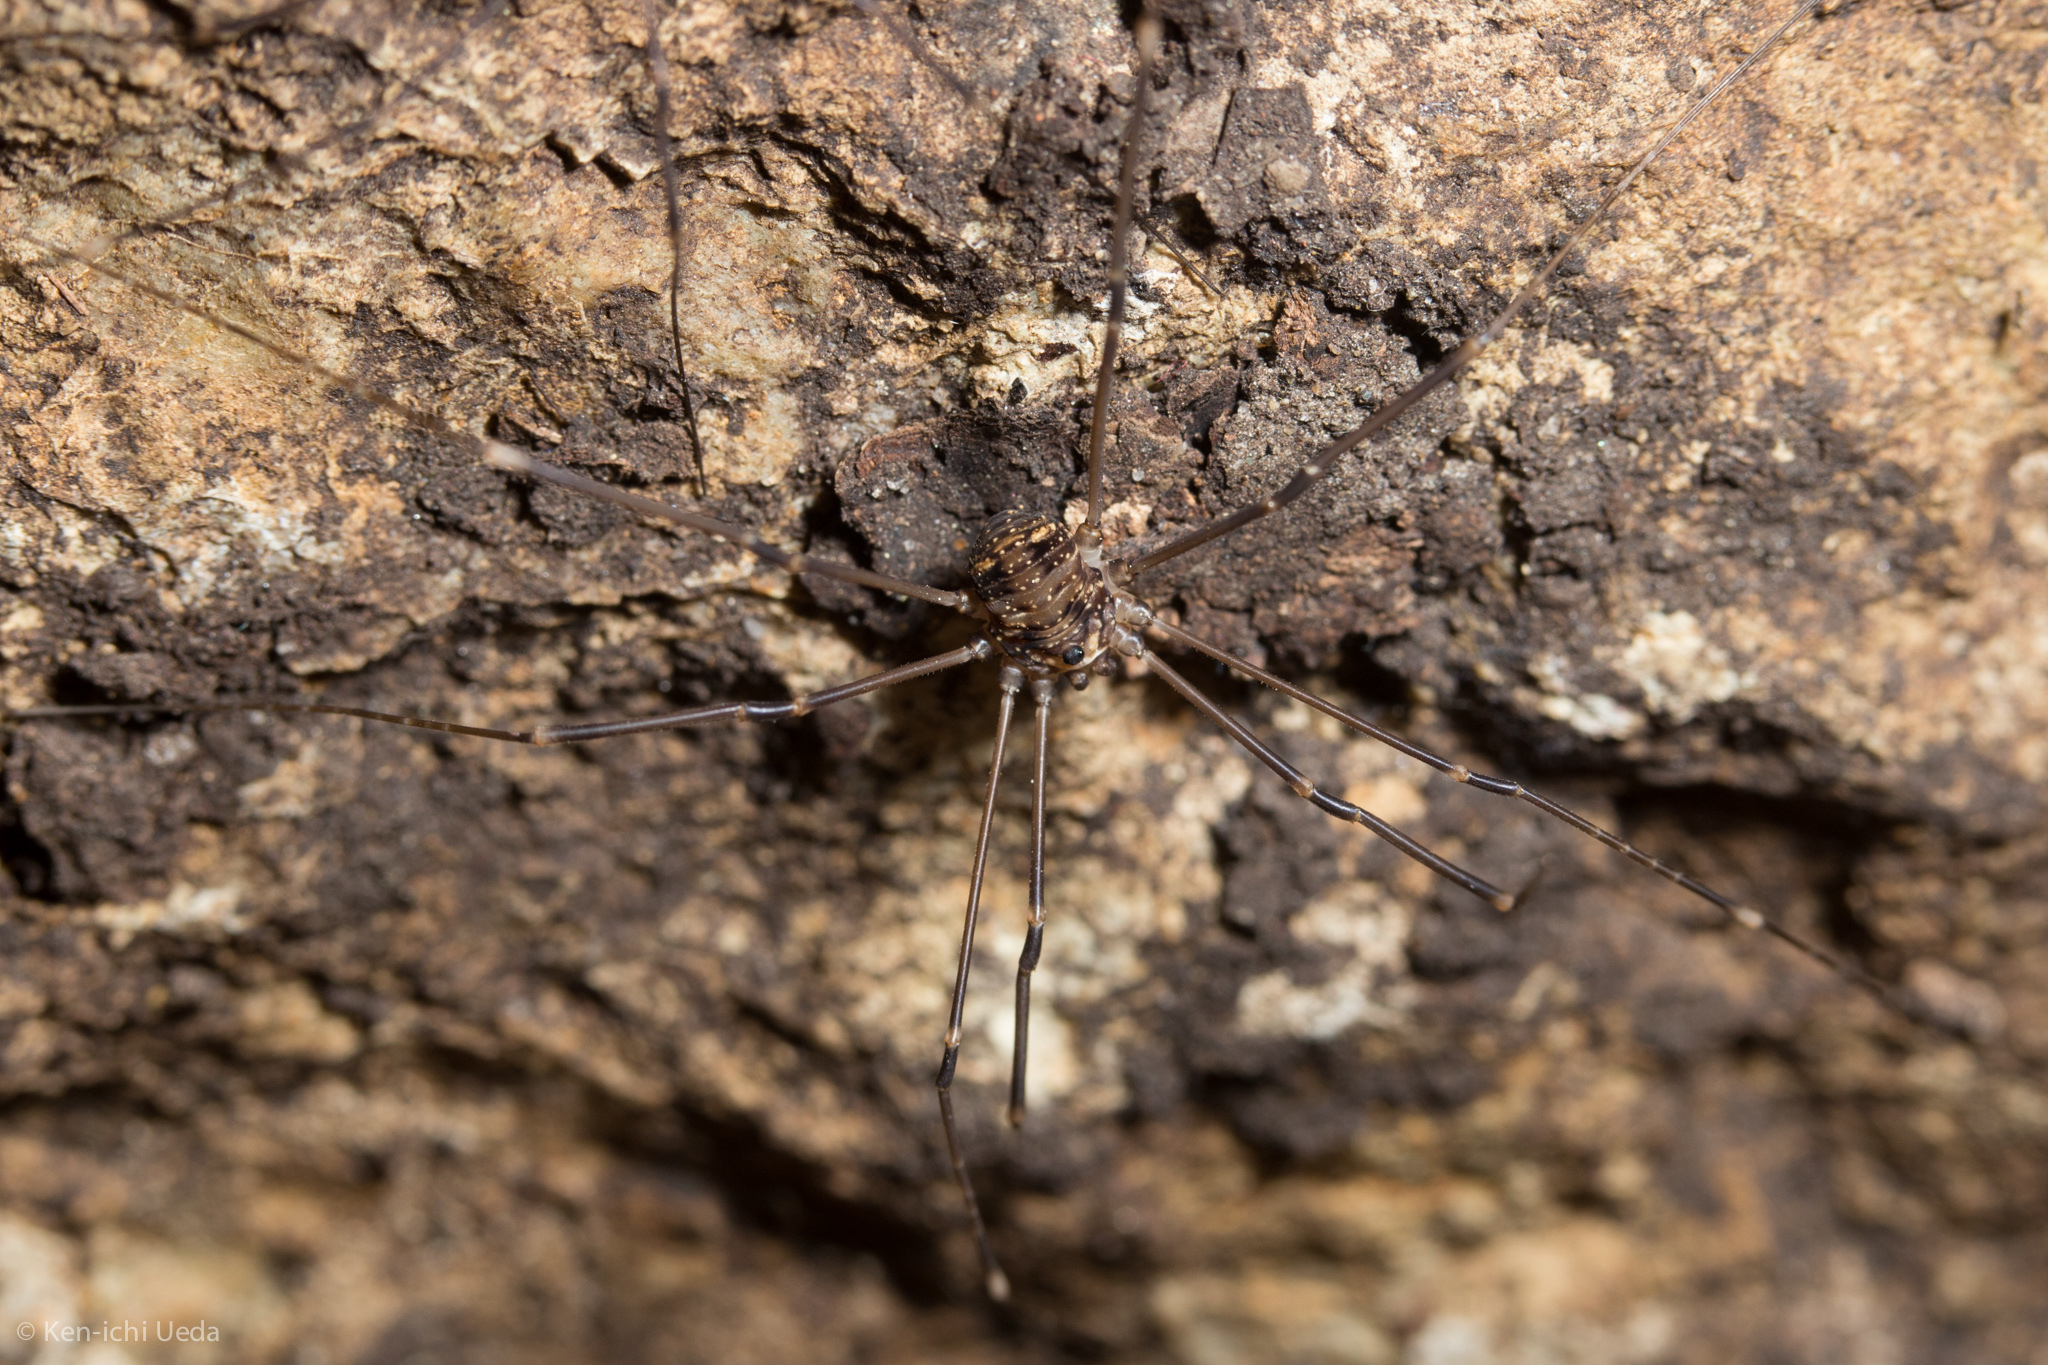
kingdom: Animalia
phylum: Arthropoda
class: Arachnida
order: Opiliones
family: Sclerosomatidae
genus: Nelima
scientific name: Nelima paessleri
